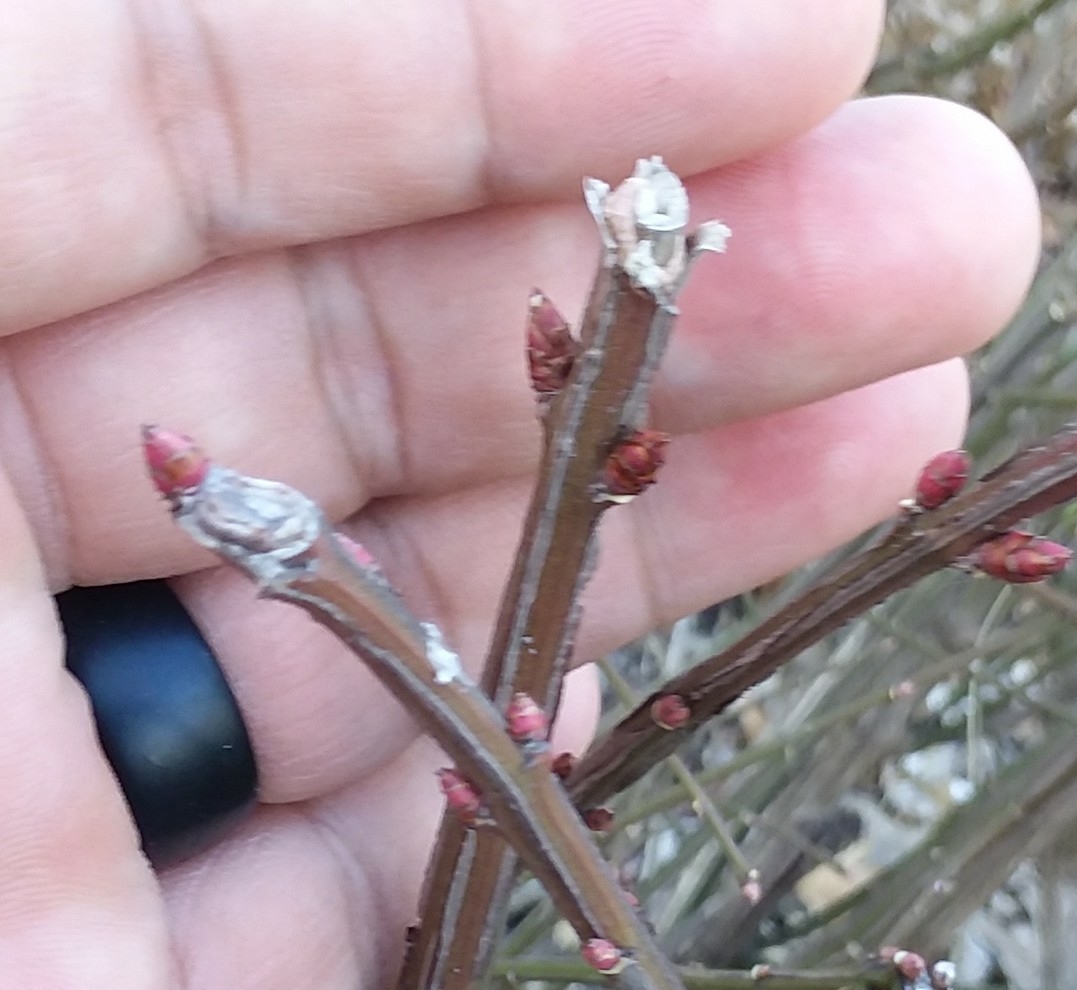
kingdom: Plantae
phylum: Tracheophyta
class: Magnoliopsida
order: Celastrales
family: Celastraceae
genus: Euonymus
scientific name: Euonymus alatus
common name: Winged euonymus
